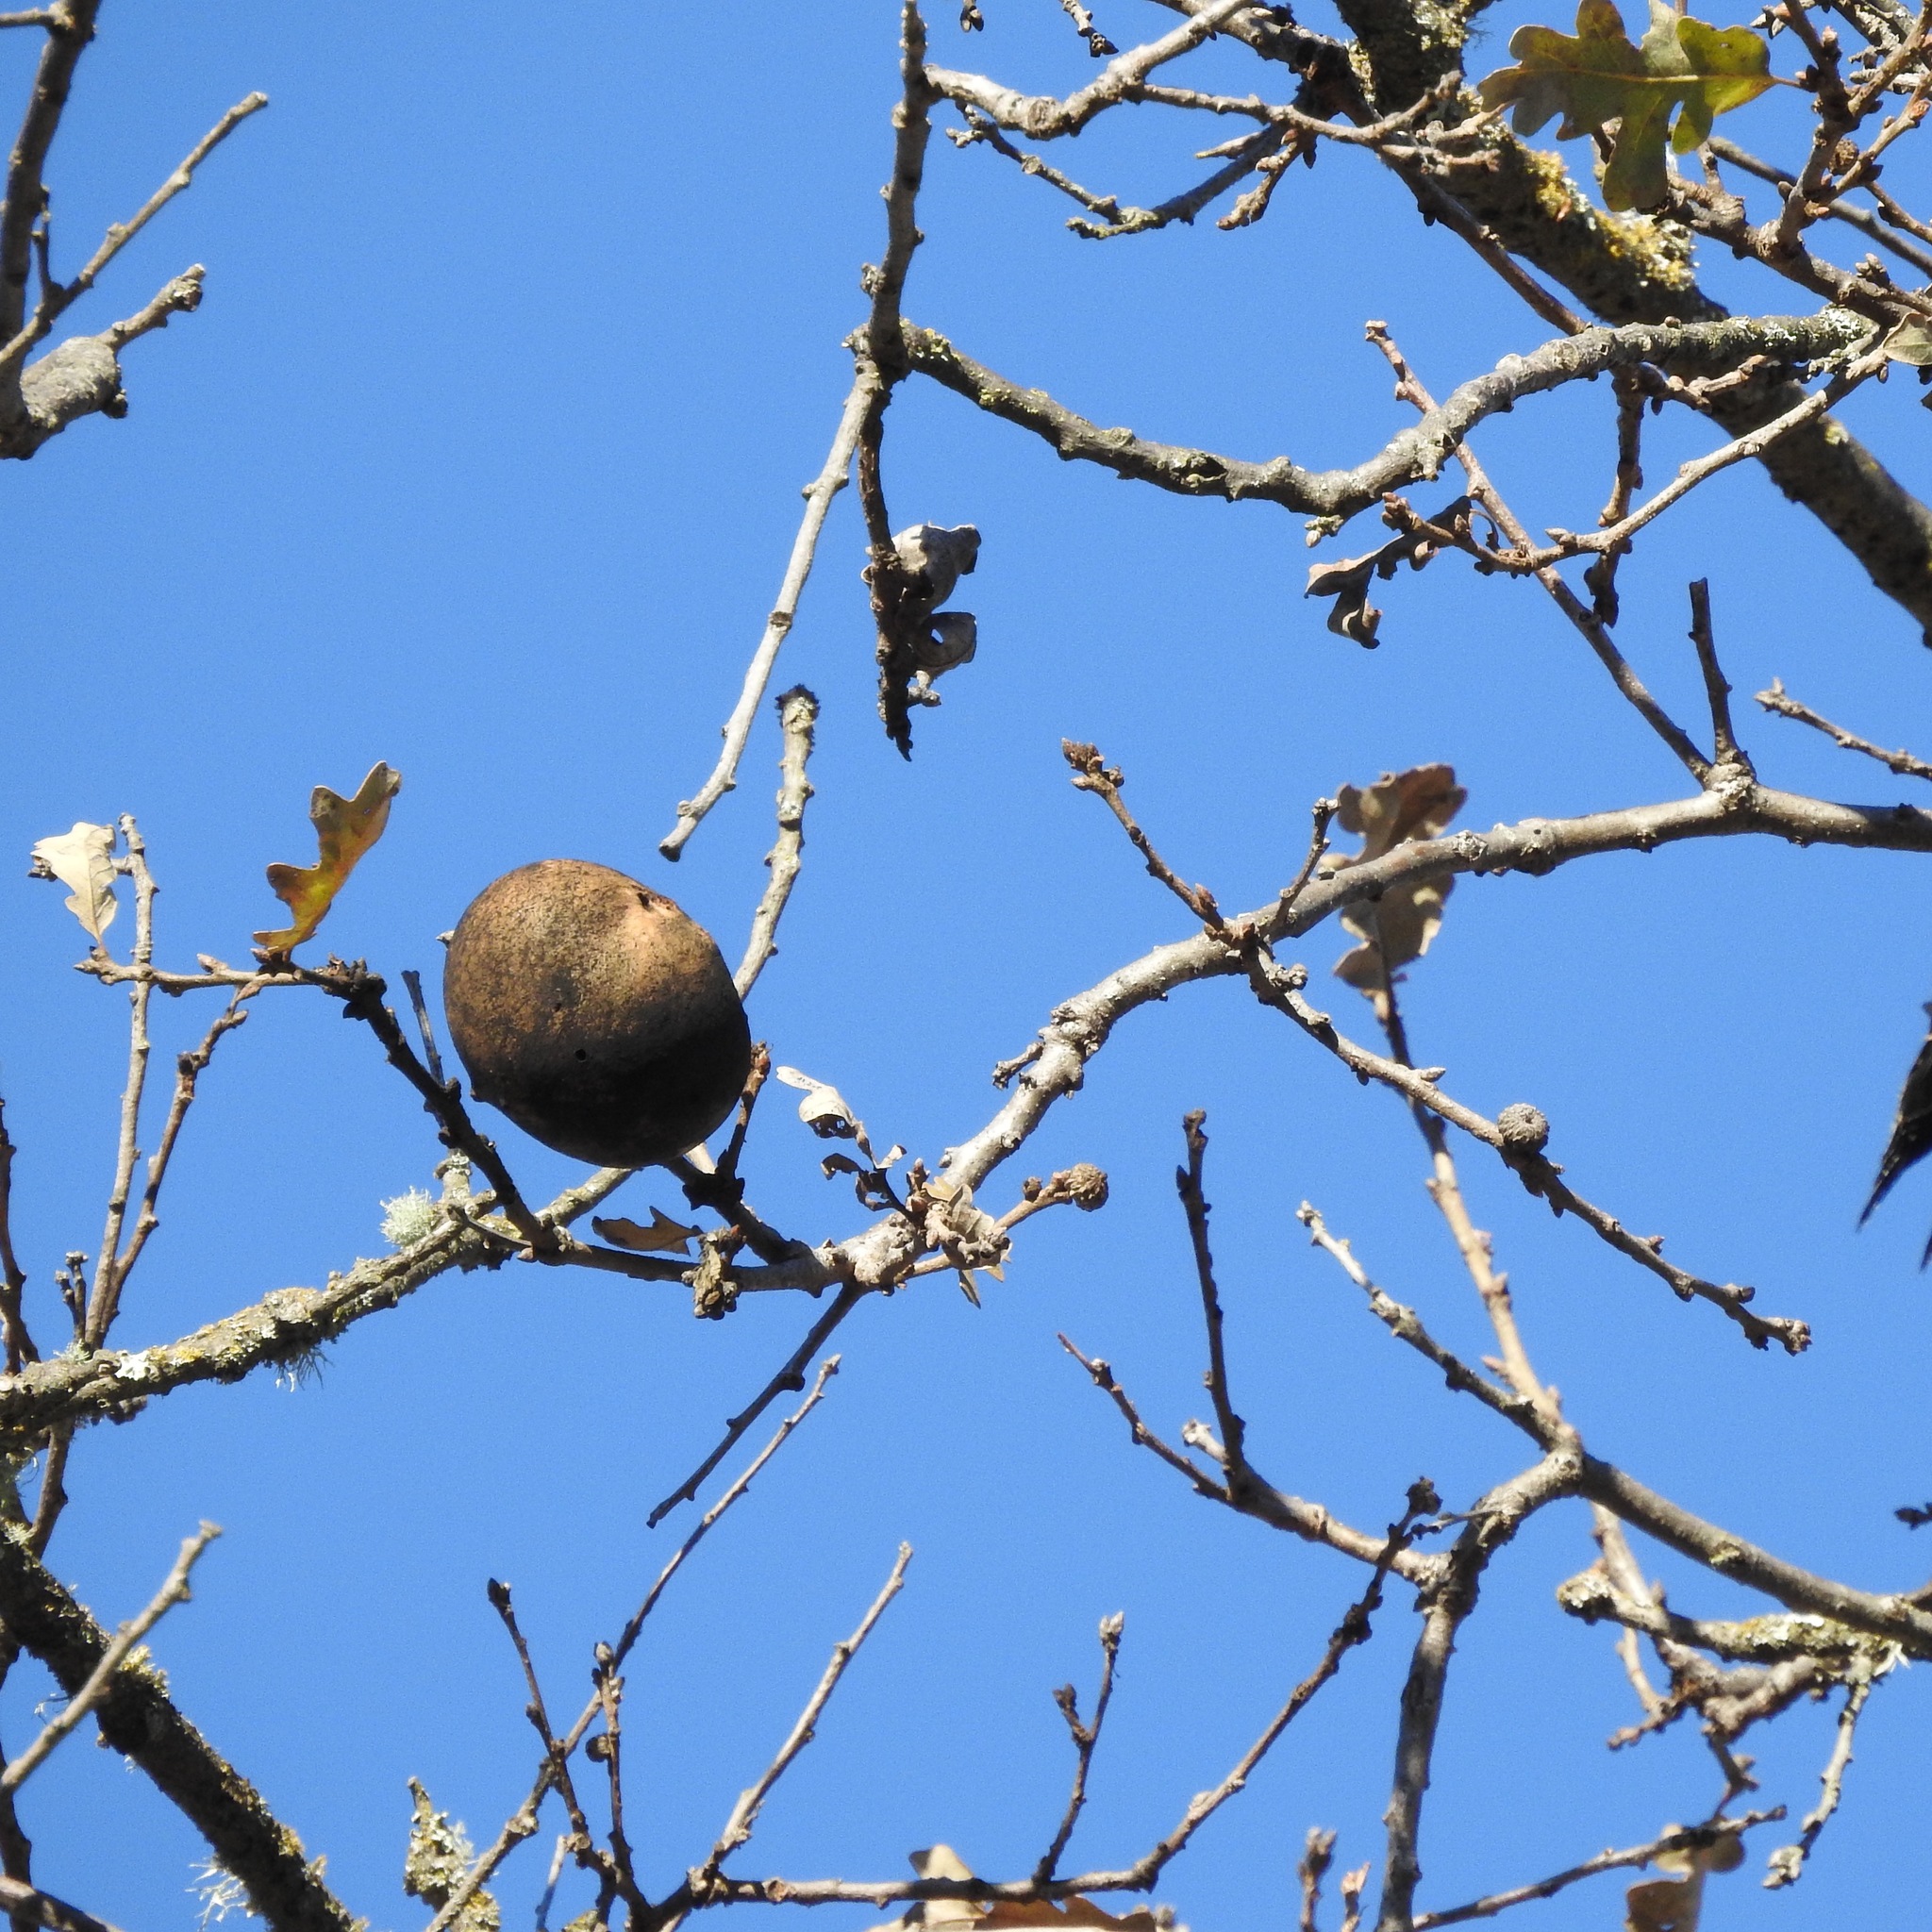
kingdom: Animalia
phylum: Arthropoda
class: Insecta
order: Hymenoptera
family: Cynipidae
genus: Andricus
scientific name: Andricus quercuscalifornicus
